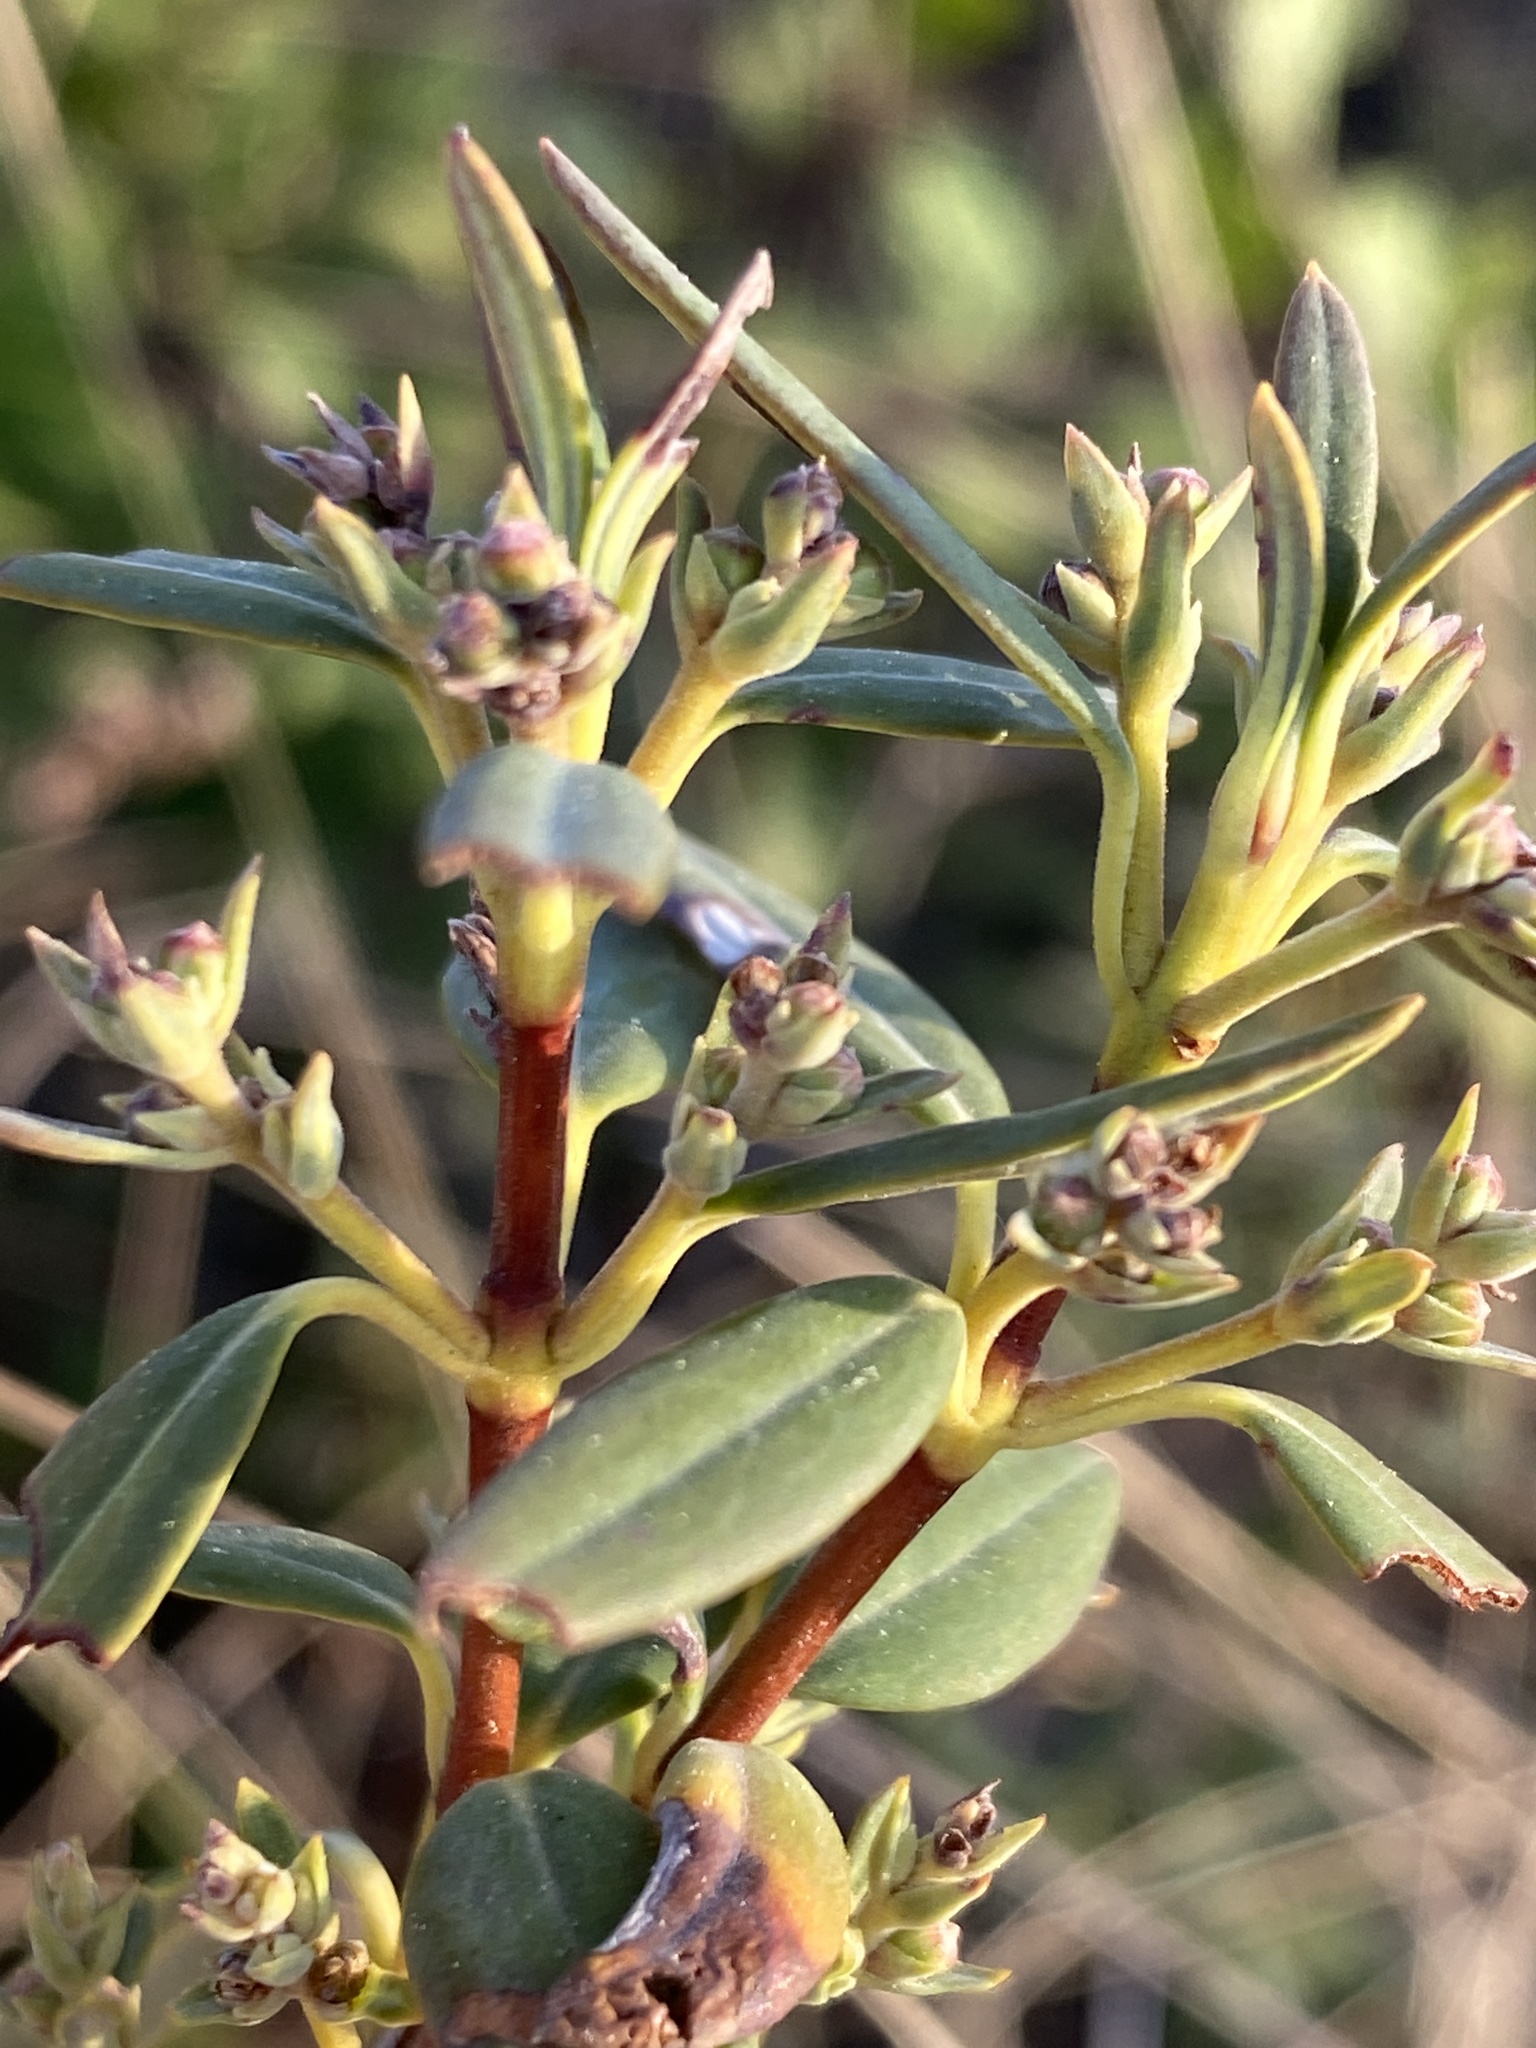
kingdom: Plantae
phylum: Tracheophyta
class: Magnoliopsida
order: Ericales
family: Ericaceae
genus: Kalmia
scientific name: Kalmia angustifolia
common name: Sheep-laurel
